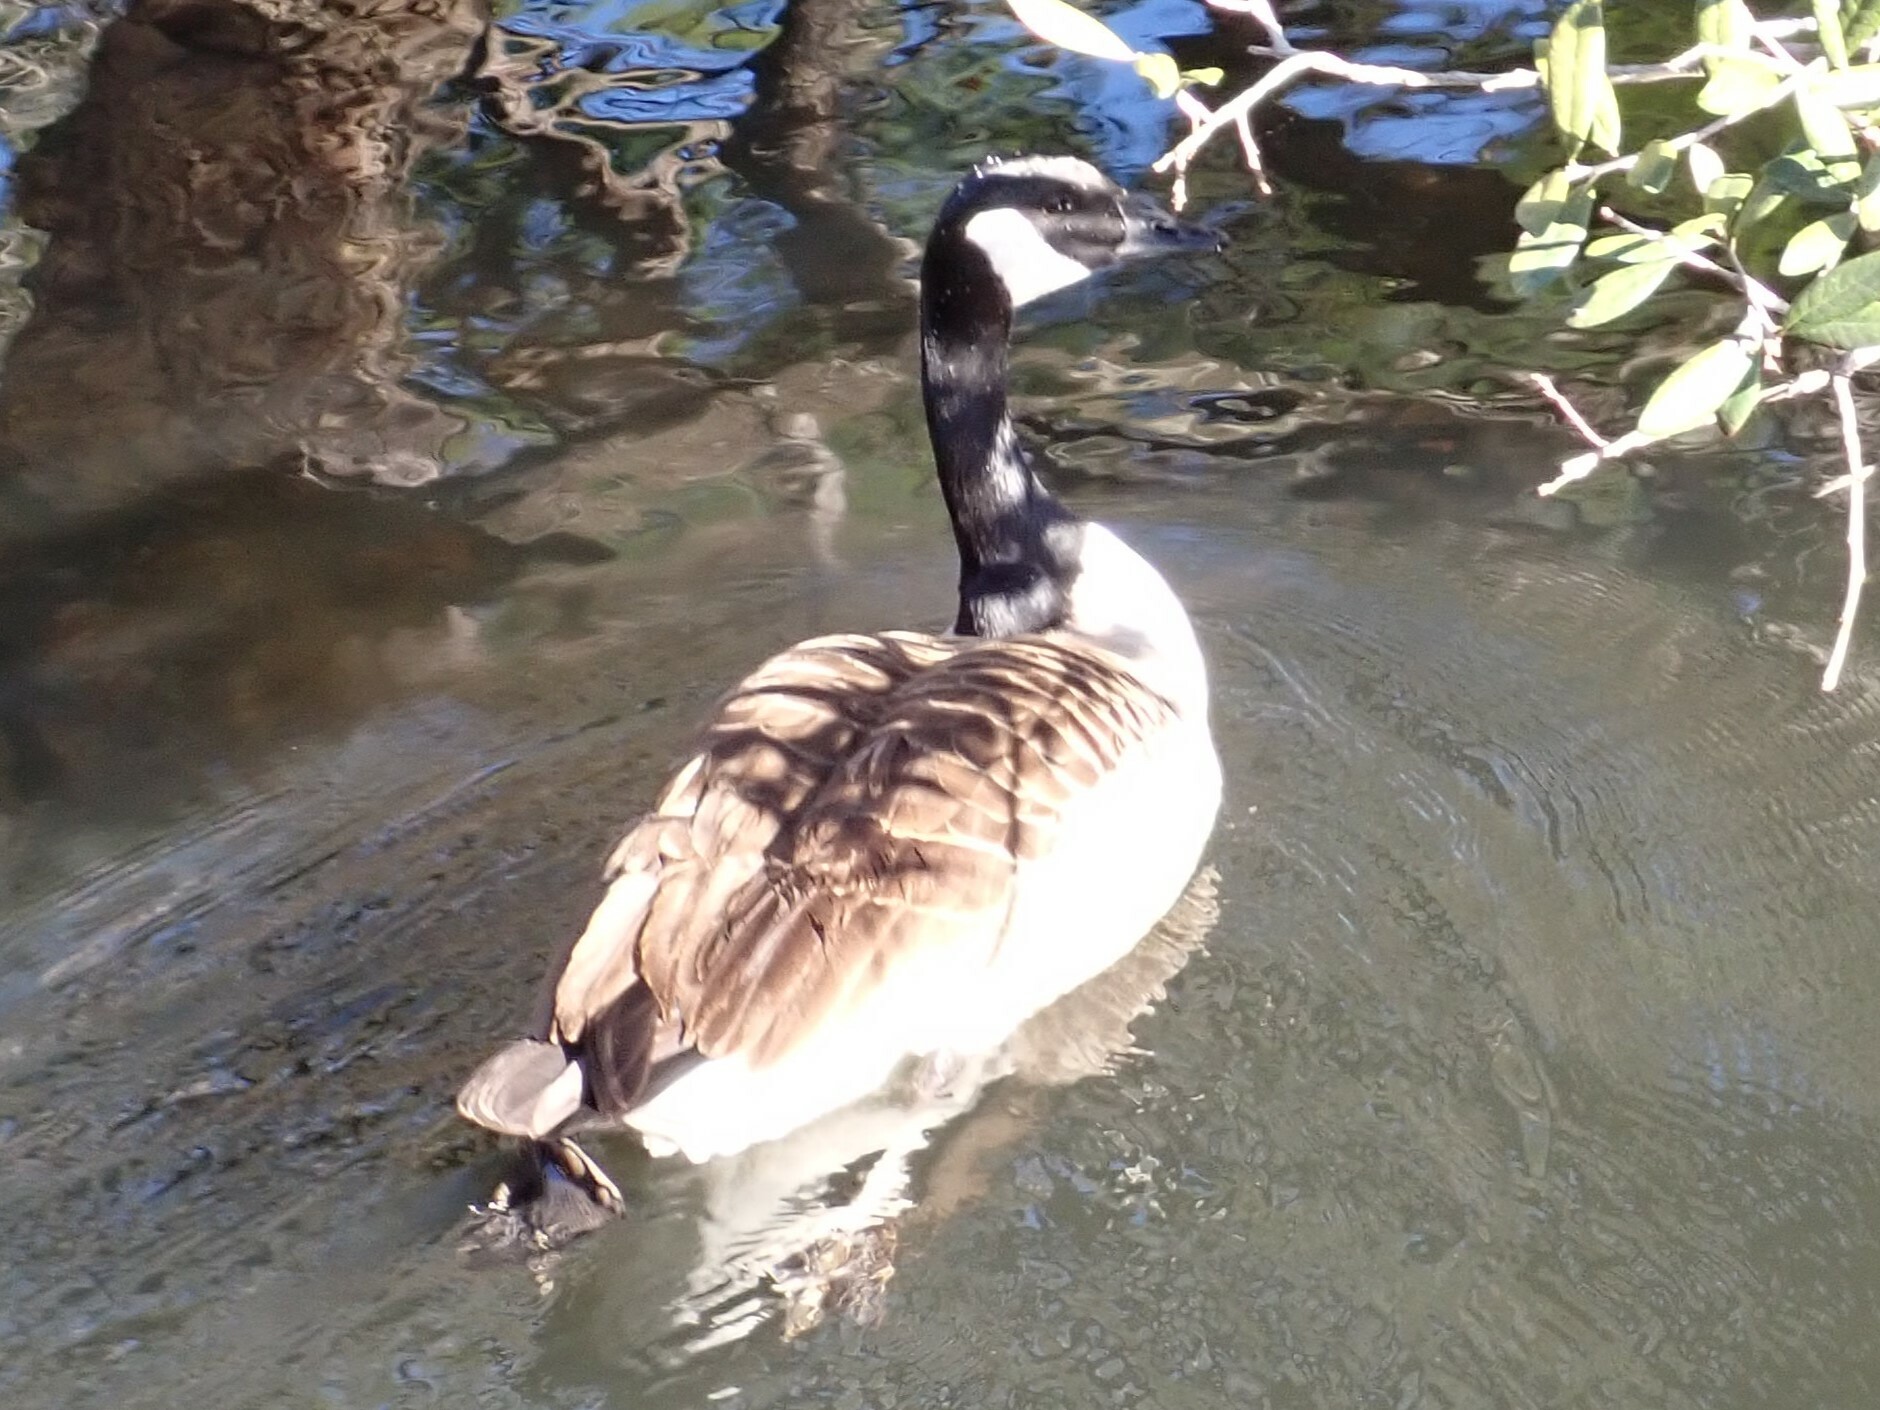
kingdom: Animalia
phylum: Chordata
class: Aves
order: Anseriformes
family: Anatidae
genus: Branta
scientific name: Branta canadensis
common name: Canada goose
